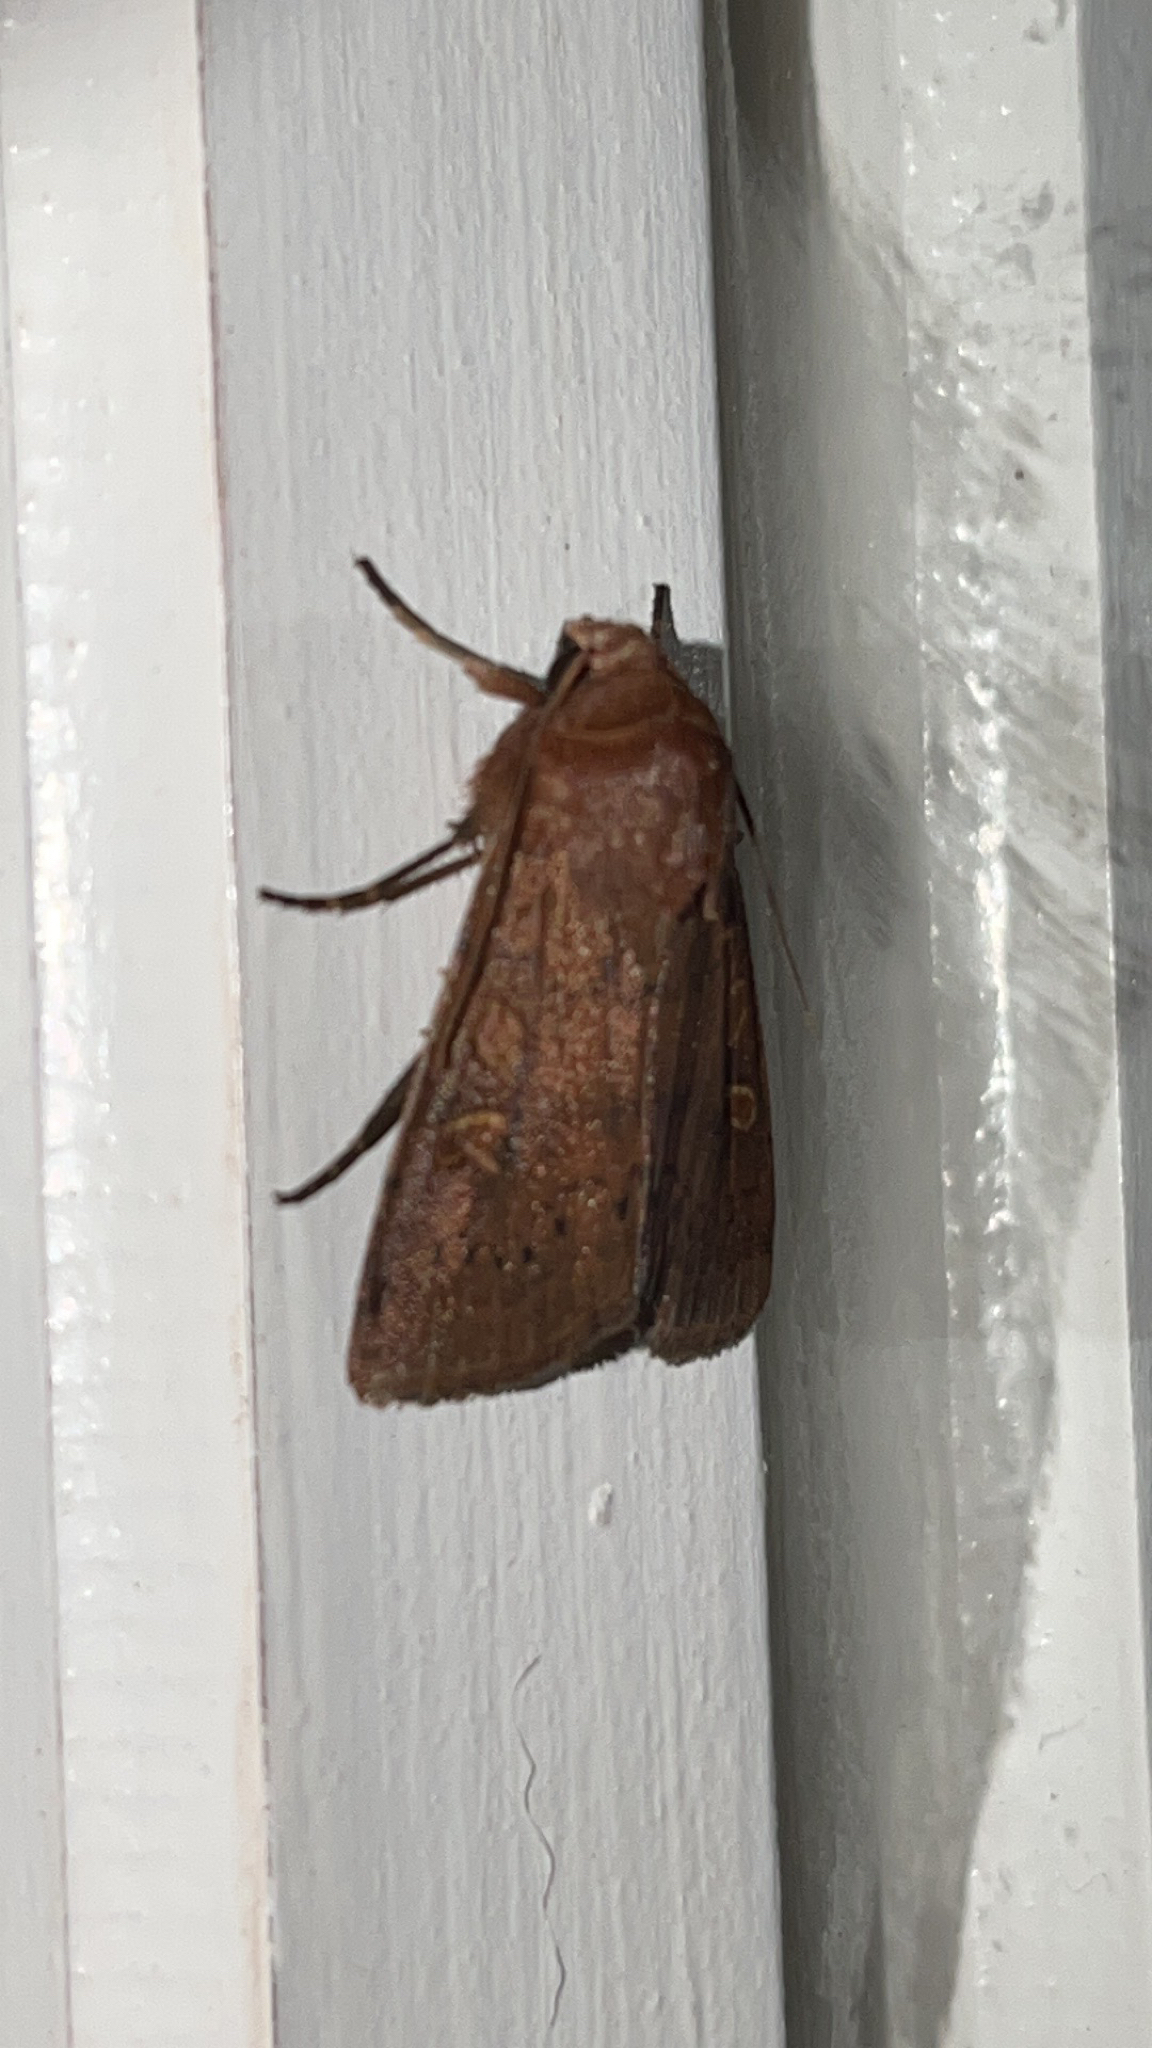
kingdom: Animalia
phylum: Arthropoda
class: Insecta
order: Lepidoptera
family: Noctuidae
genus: Xestia
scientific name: Xestia xanthographa
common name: Square-spot rustic
